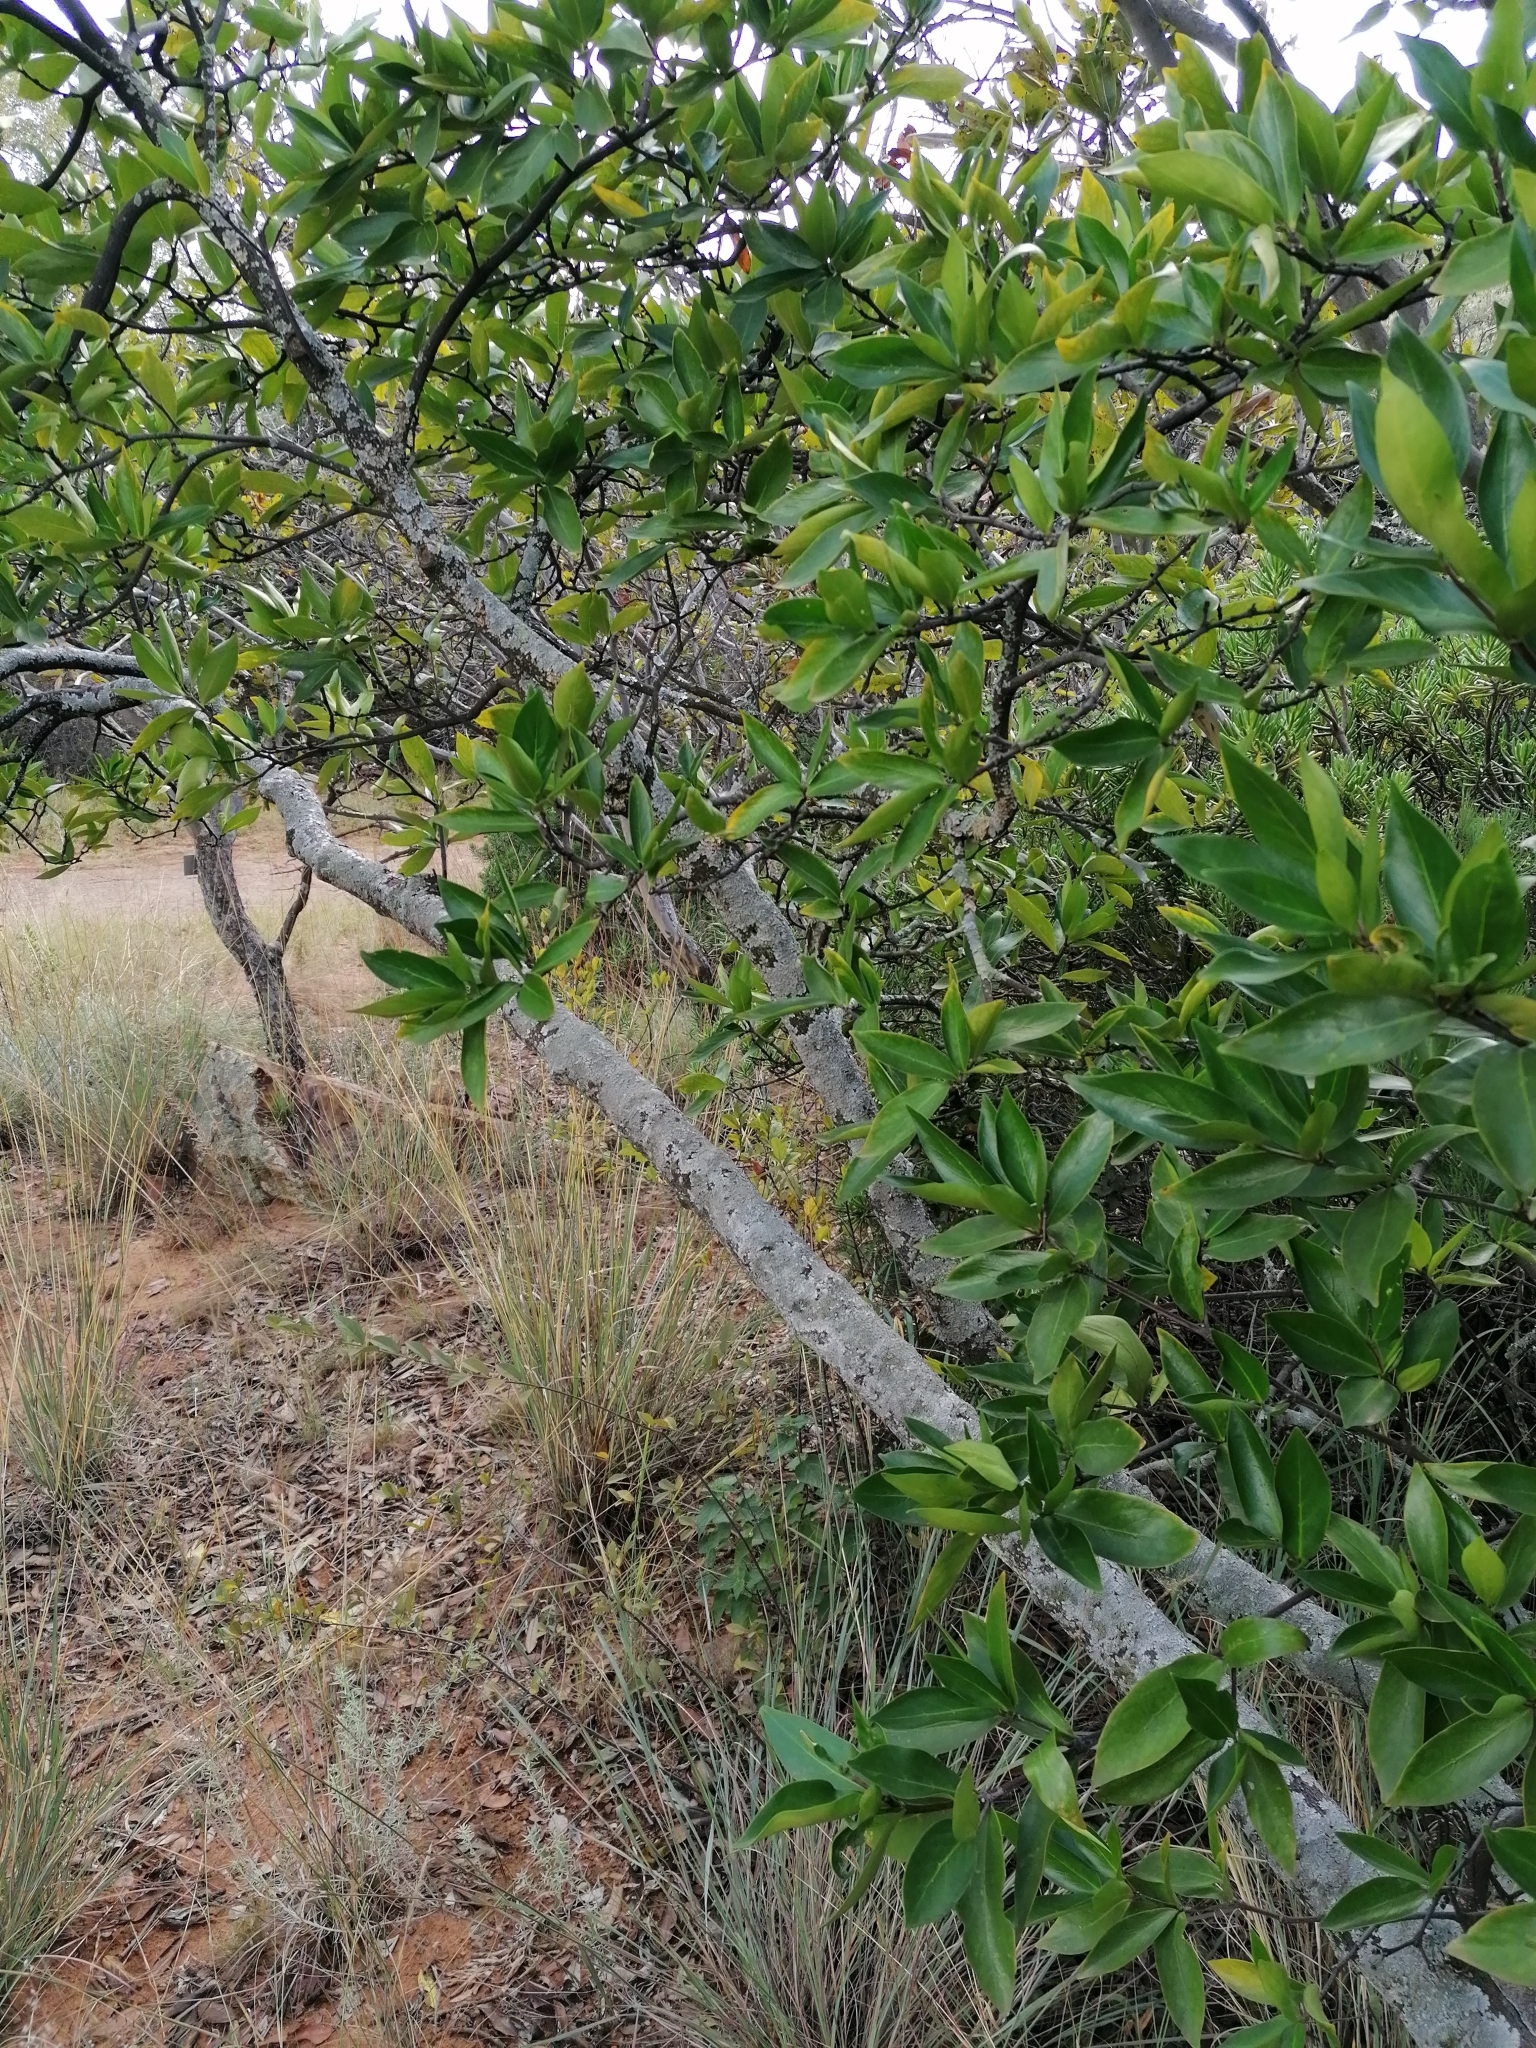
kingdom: Plantae
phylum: Tracheophyta
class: Magnoliopsida
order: Gentianales
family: Rubiaceae
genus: Rothmannia
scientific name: Rothmannia capensis
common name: Cape gardenia
